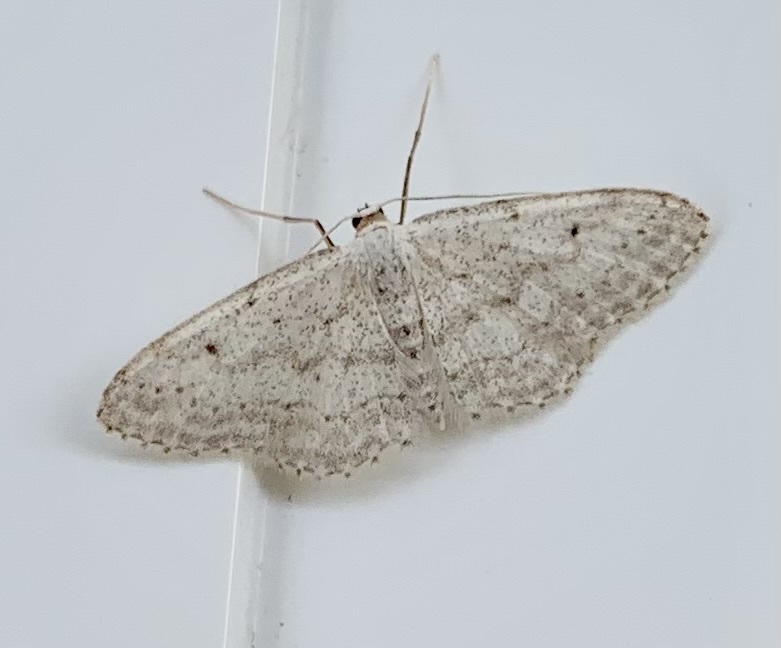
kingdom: Animalia
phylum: Arthropoda
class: Insecta
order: Lepidoptera
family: Geometridae
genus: Idaea
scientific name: Idaea seriata
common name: Small dusty wave
